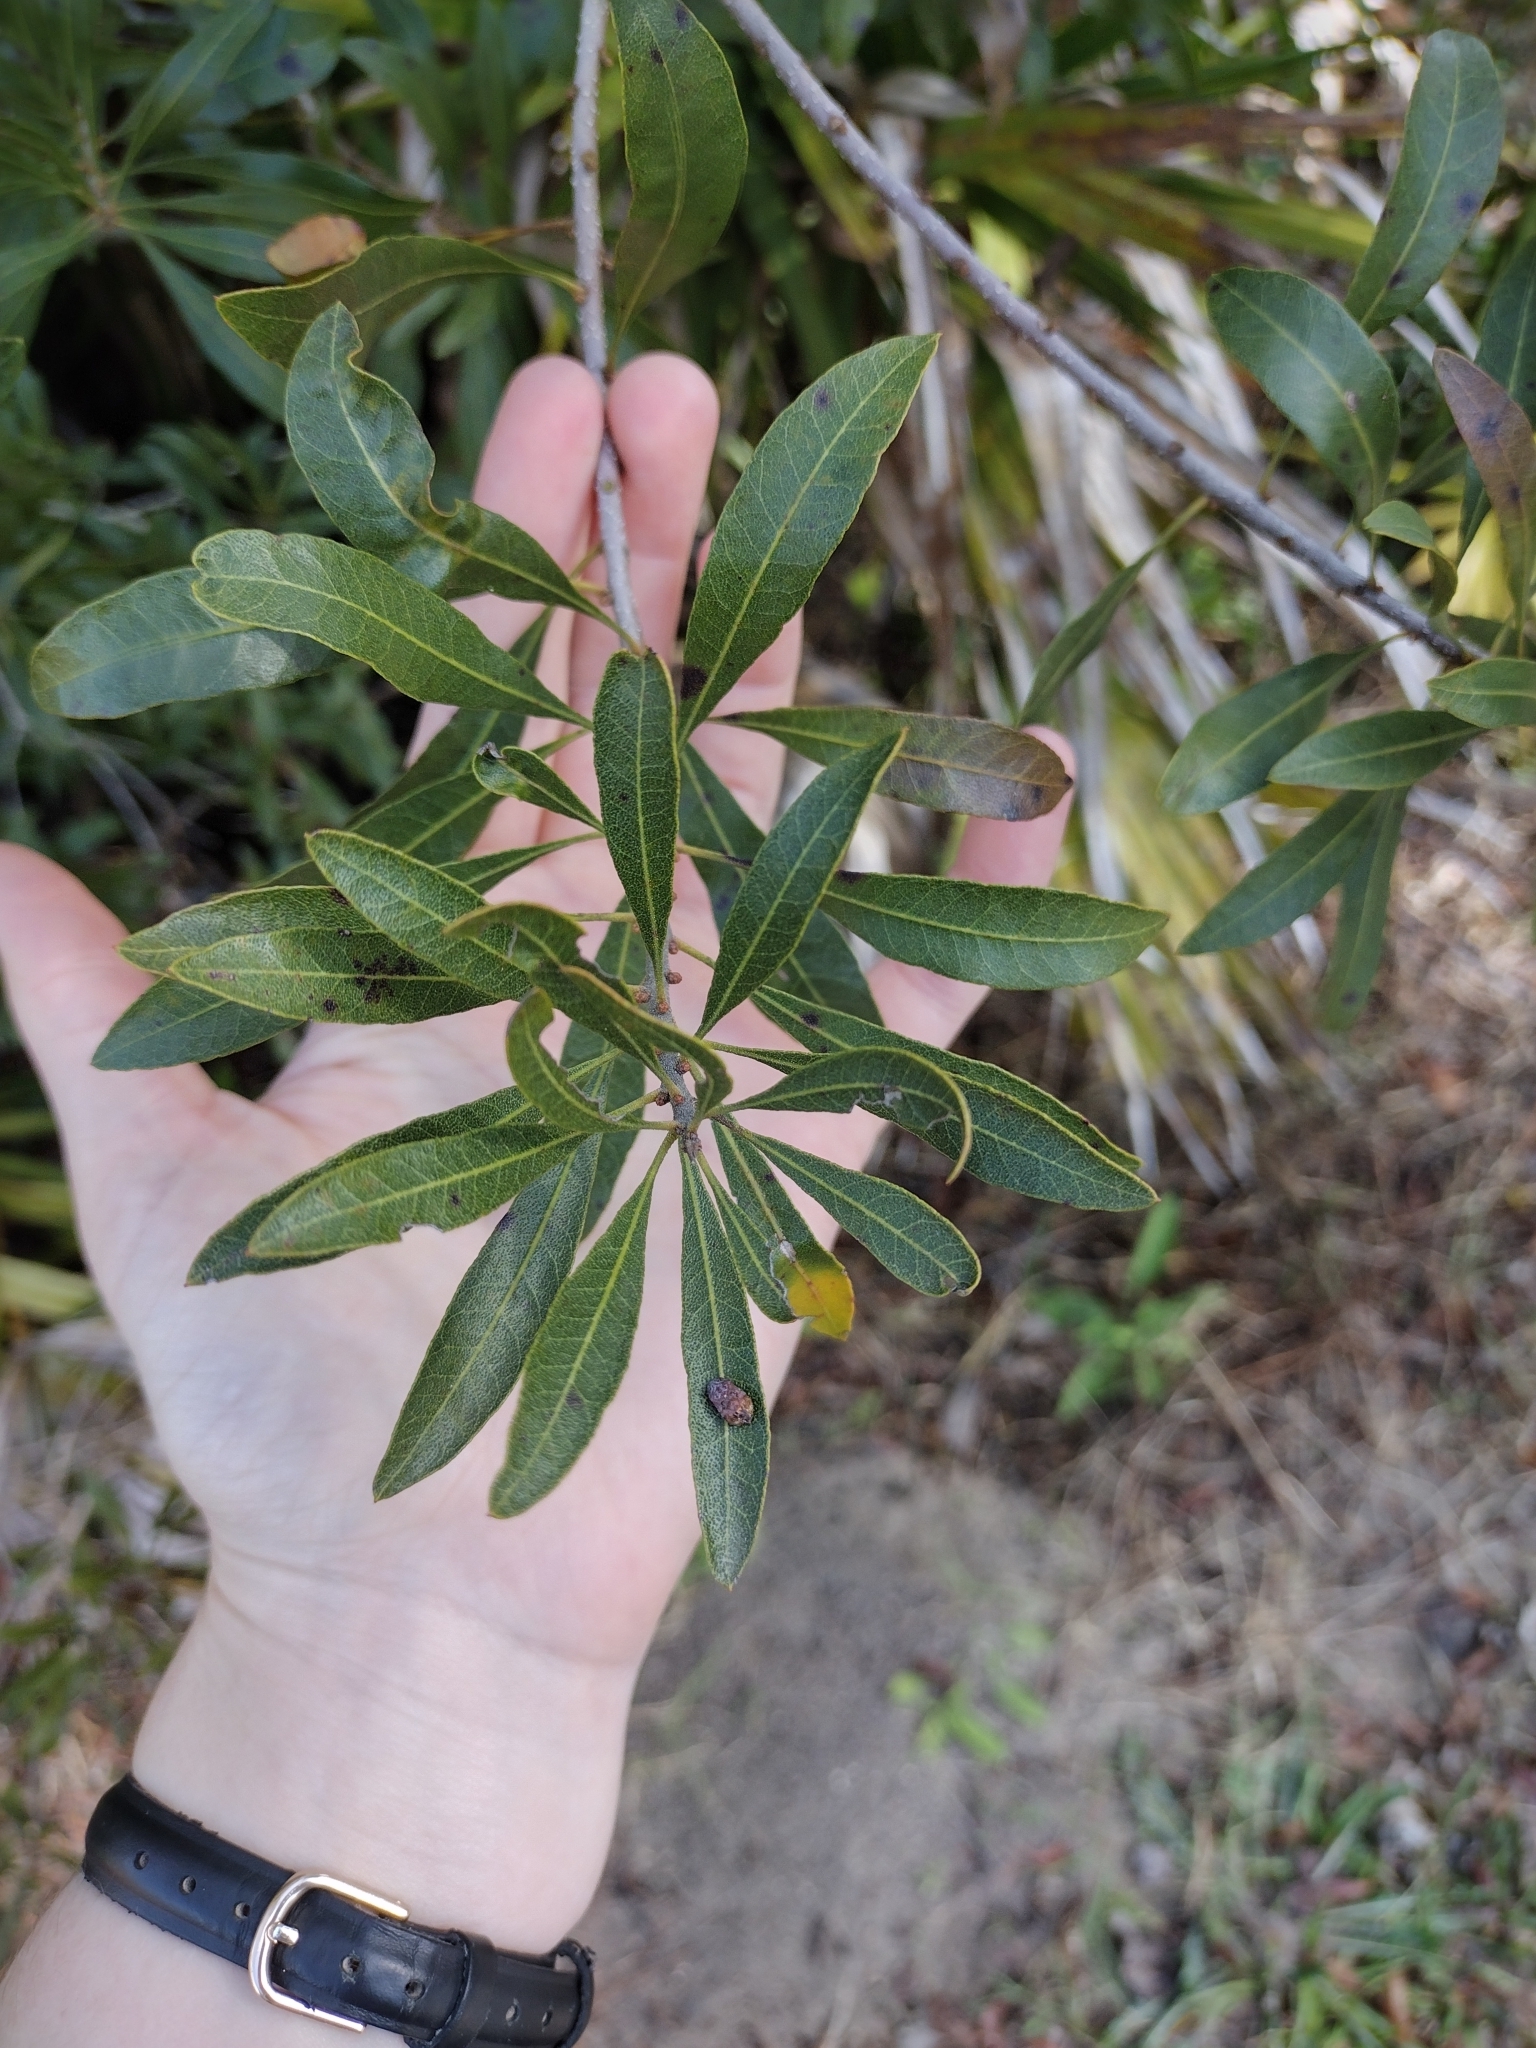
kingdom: Plantae
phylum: Tracheophyta
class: Magnoliopsida
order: Fagales
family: Myricaceae
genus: Morella
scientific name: Morella cerifera
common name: Wax myrtle
